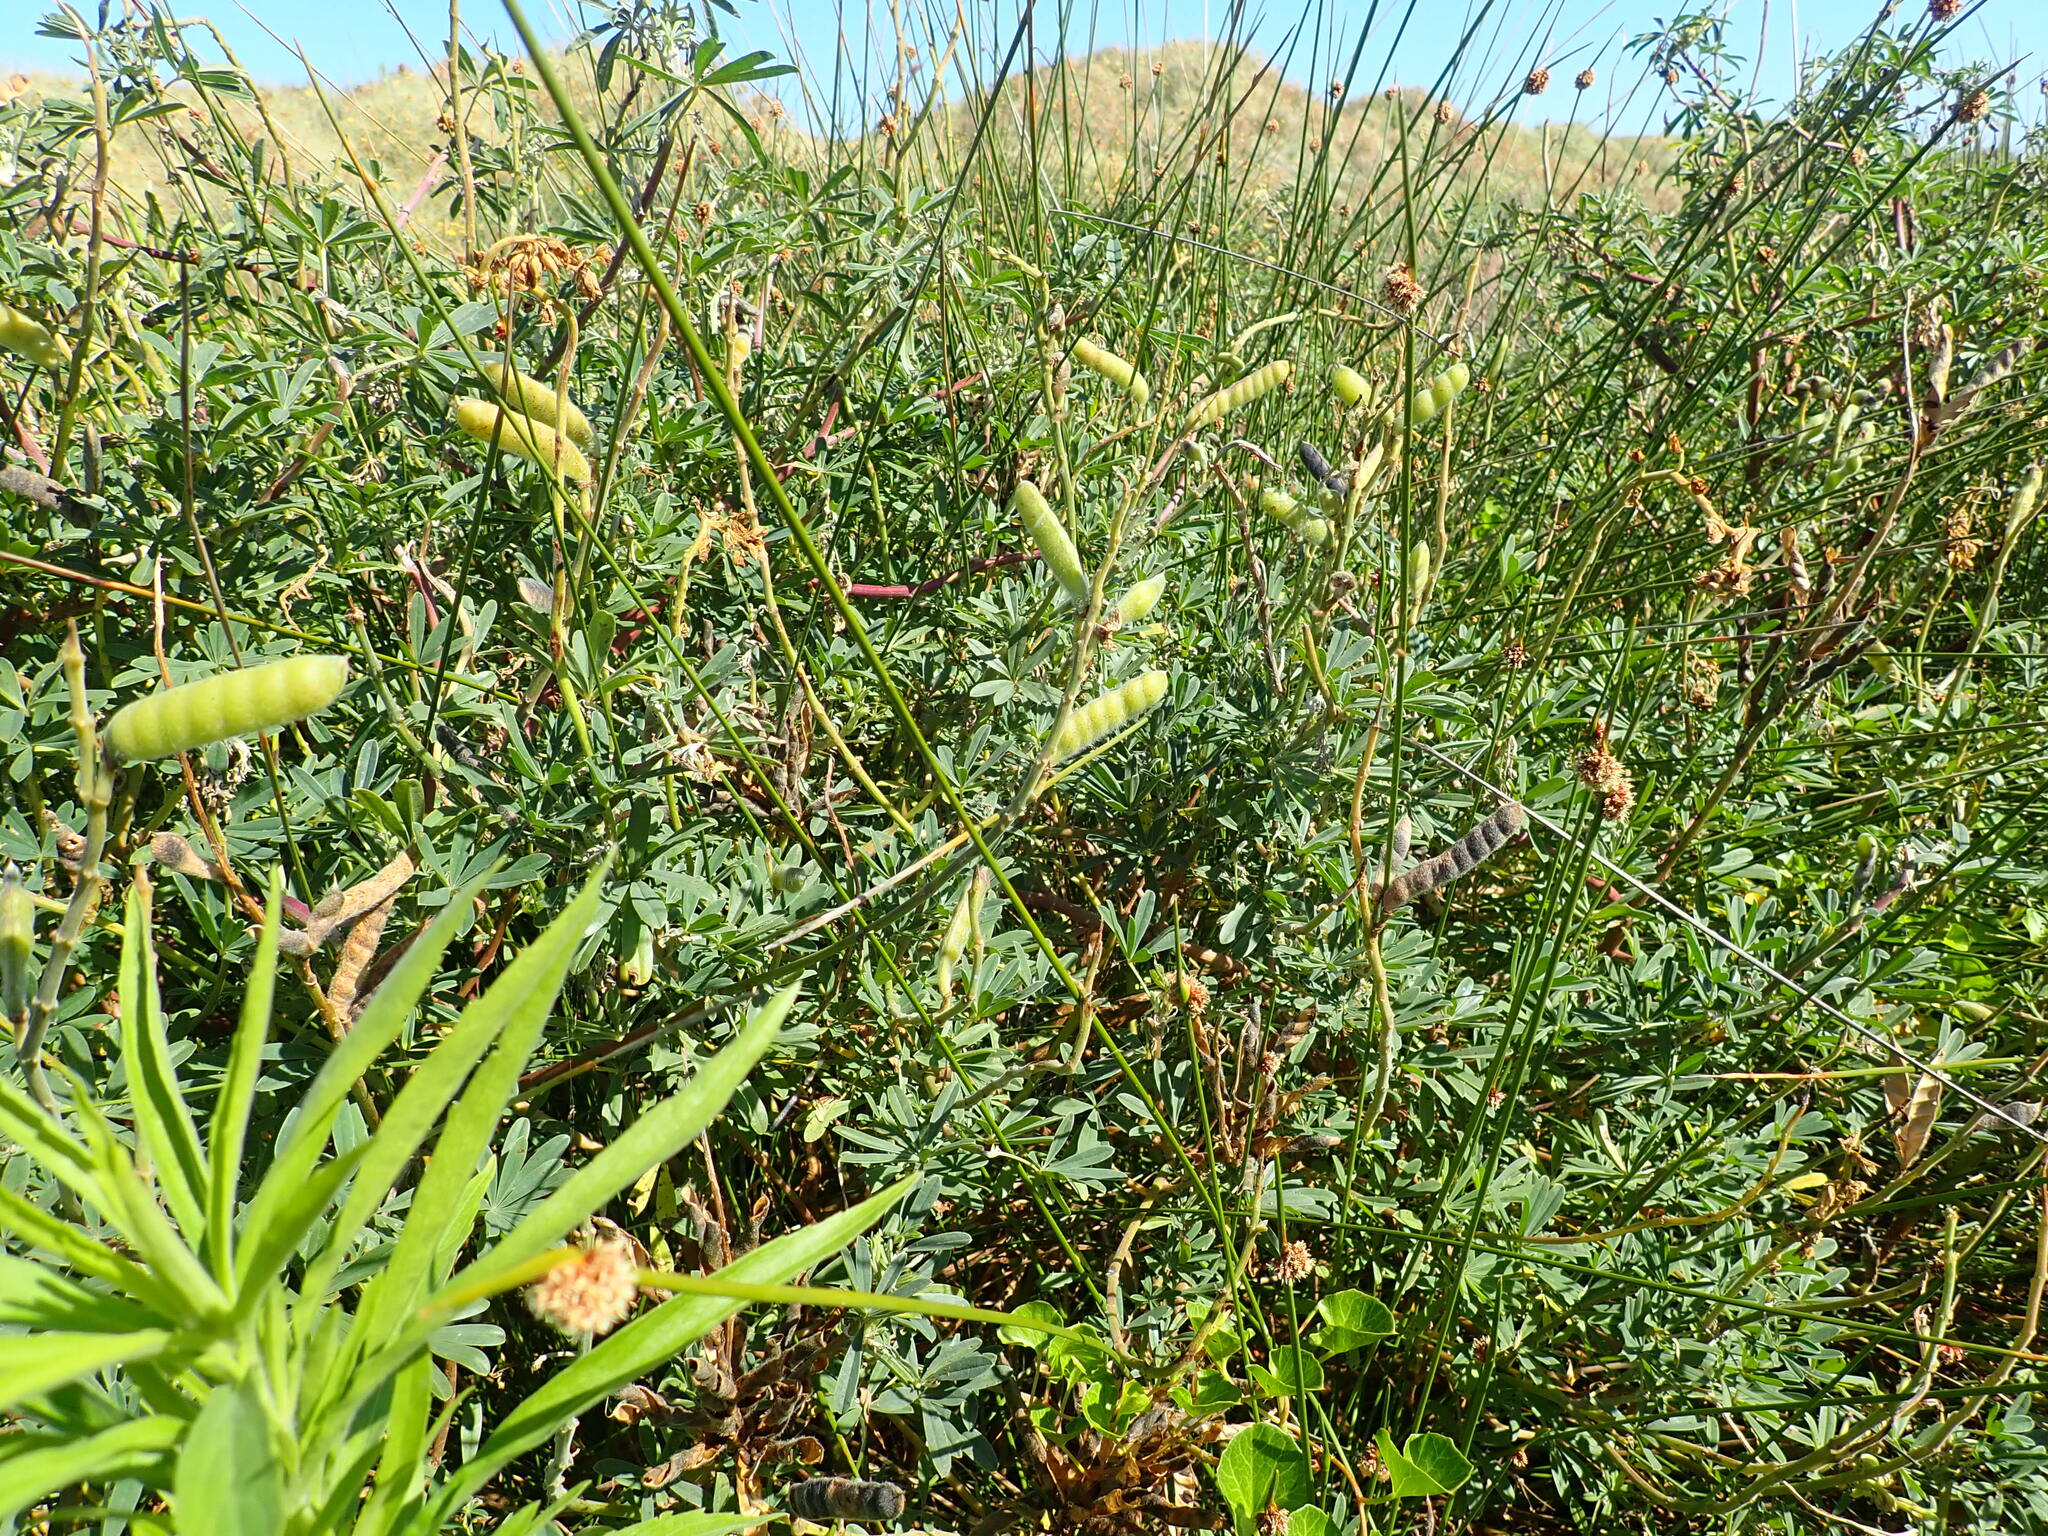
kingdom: Plantae
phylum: Tracheophyta
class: Magnoliopsida
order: Fabales
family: Fabaceae
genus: Lupinus
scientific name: Lupinus arboreus
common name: Yellow bush lupine
